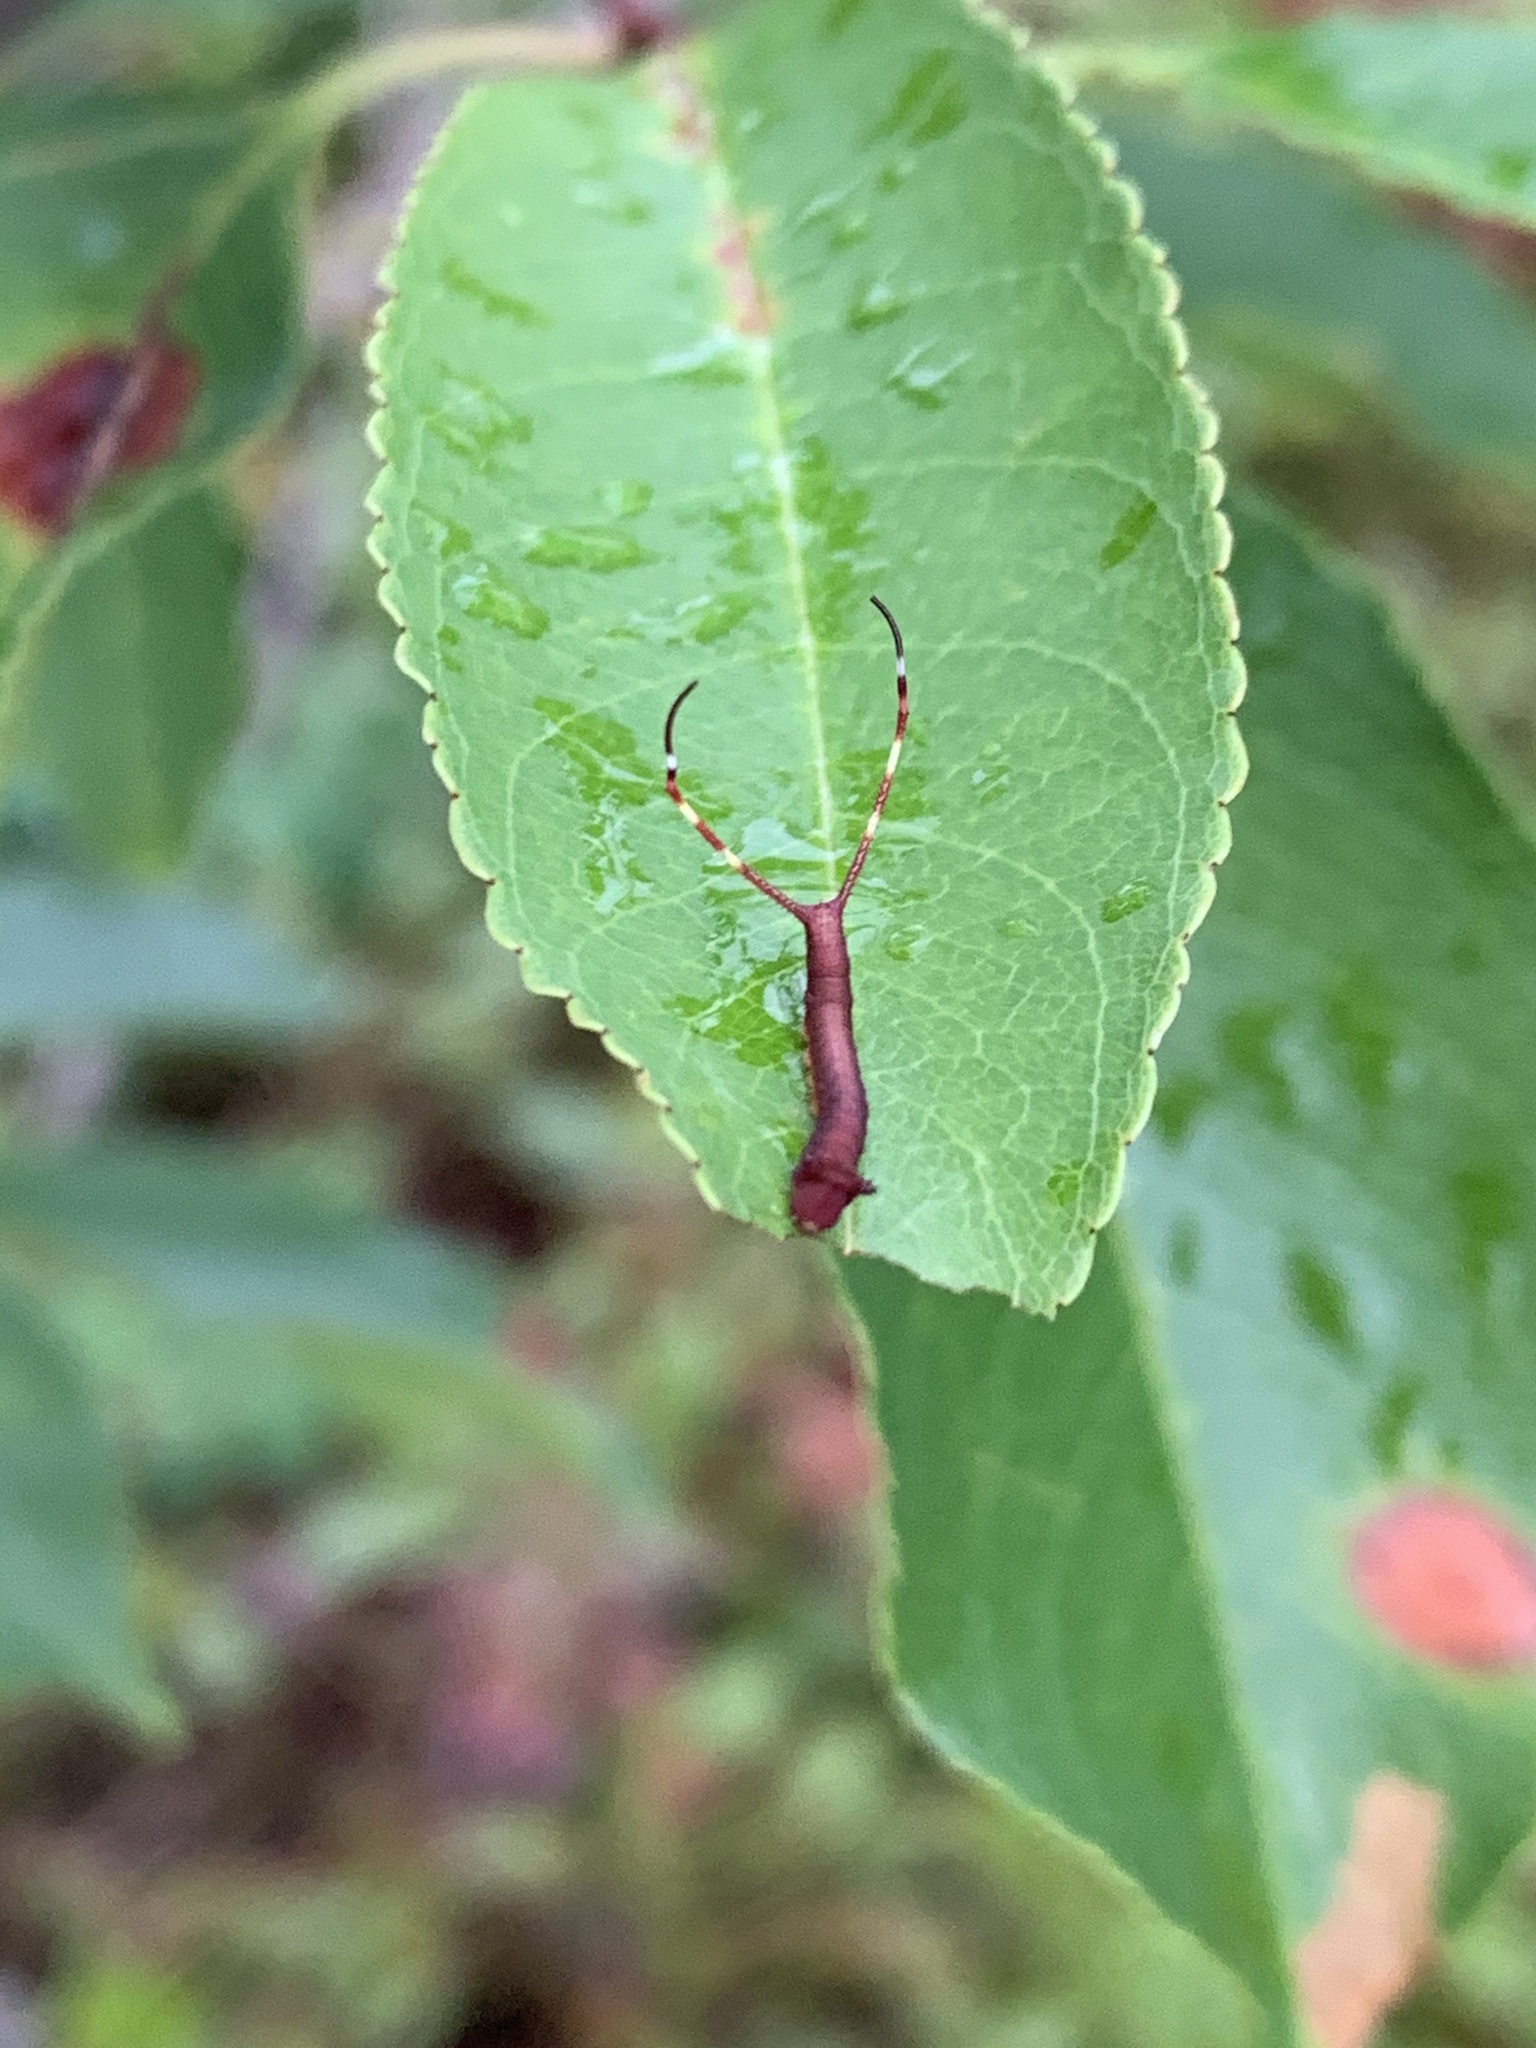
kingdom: Animalia
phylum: Arthropoda
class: Insecta
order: Lepidoptera
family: Notodontidae
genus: Furcula
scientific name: Furcula borealis
